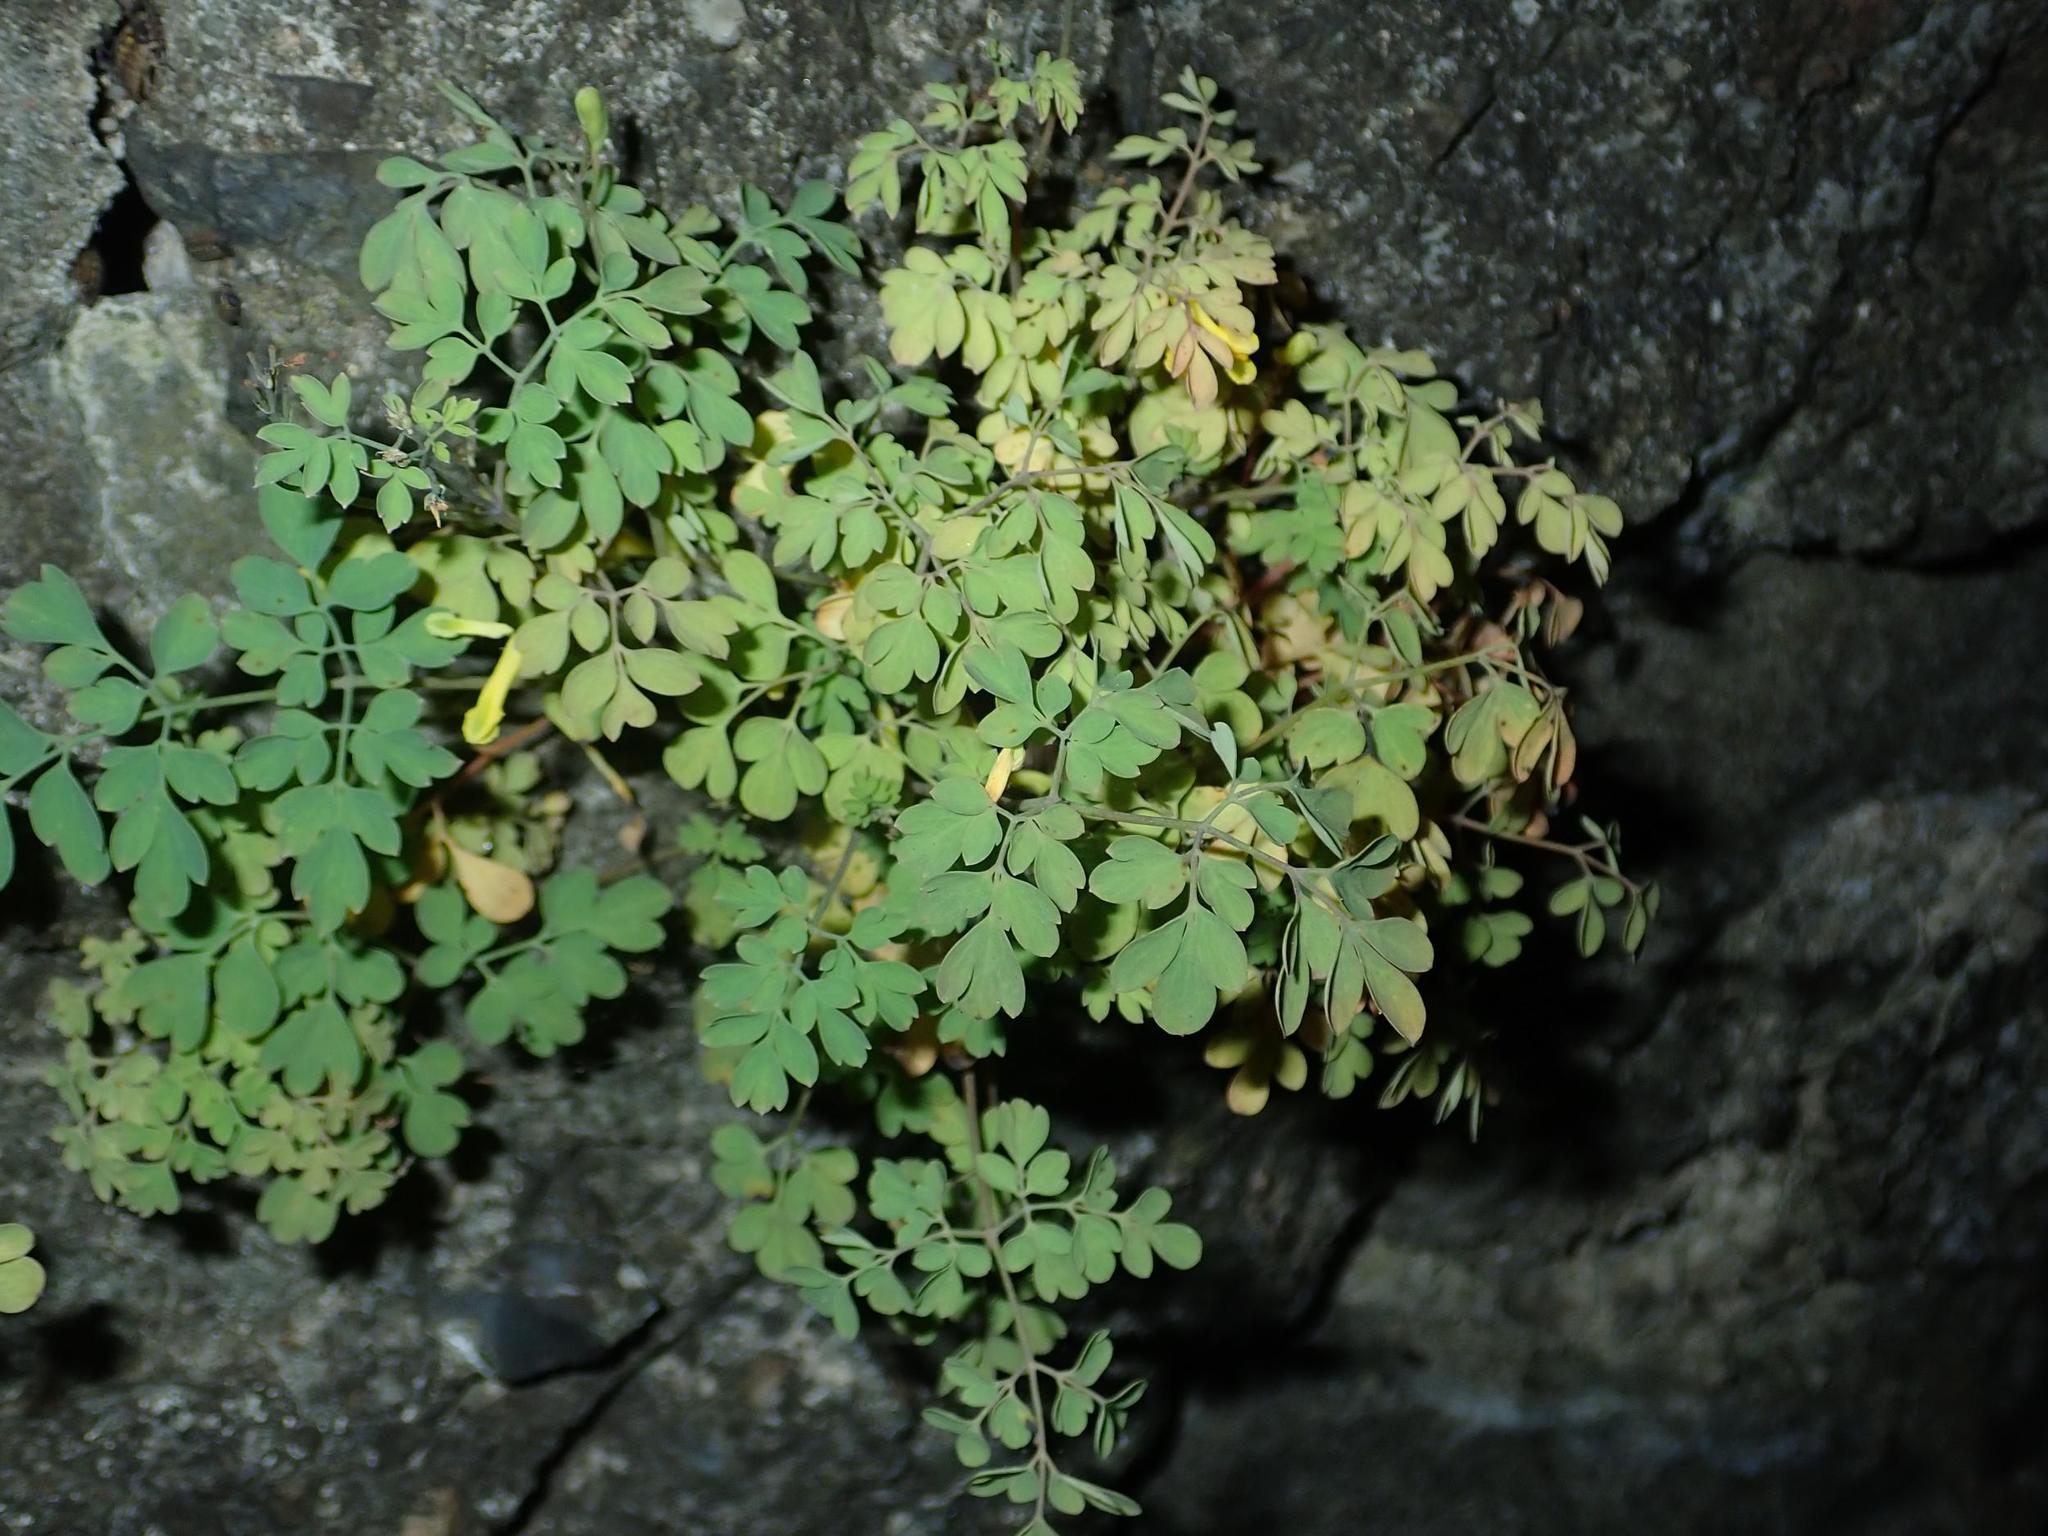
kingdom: Plantae
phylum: Tracheophyta
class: Magnoliopsida
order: Ranunculales
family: Papaveraceae
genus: Pseudofumaria
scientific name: Pseudofumaria lutea
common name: Yellow corydalis
